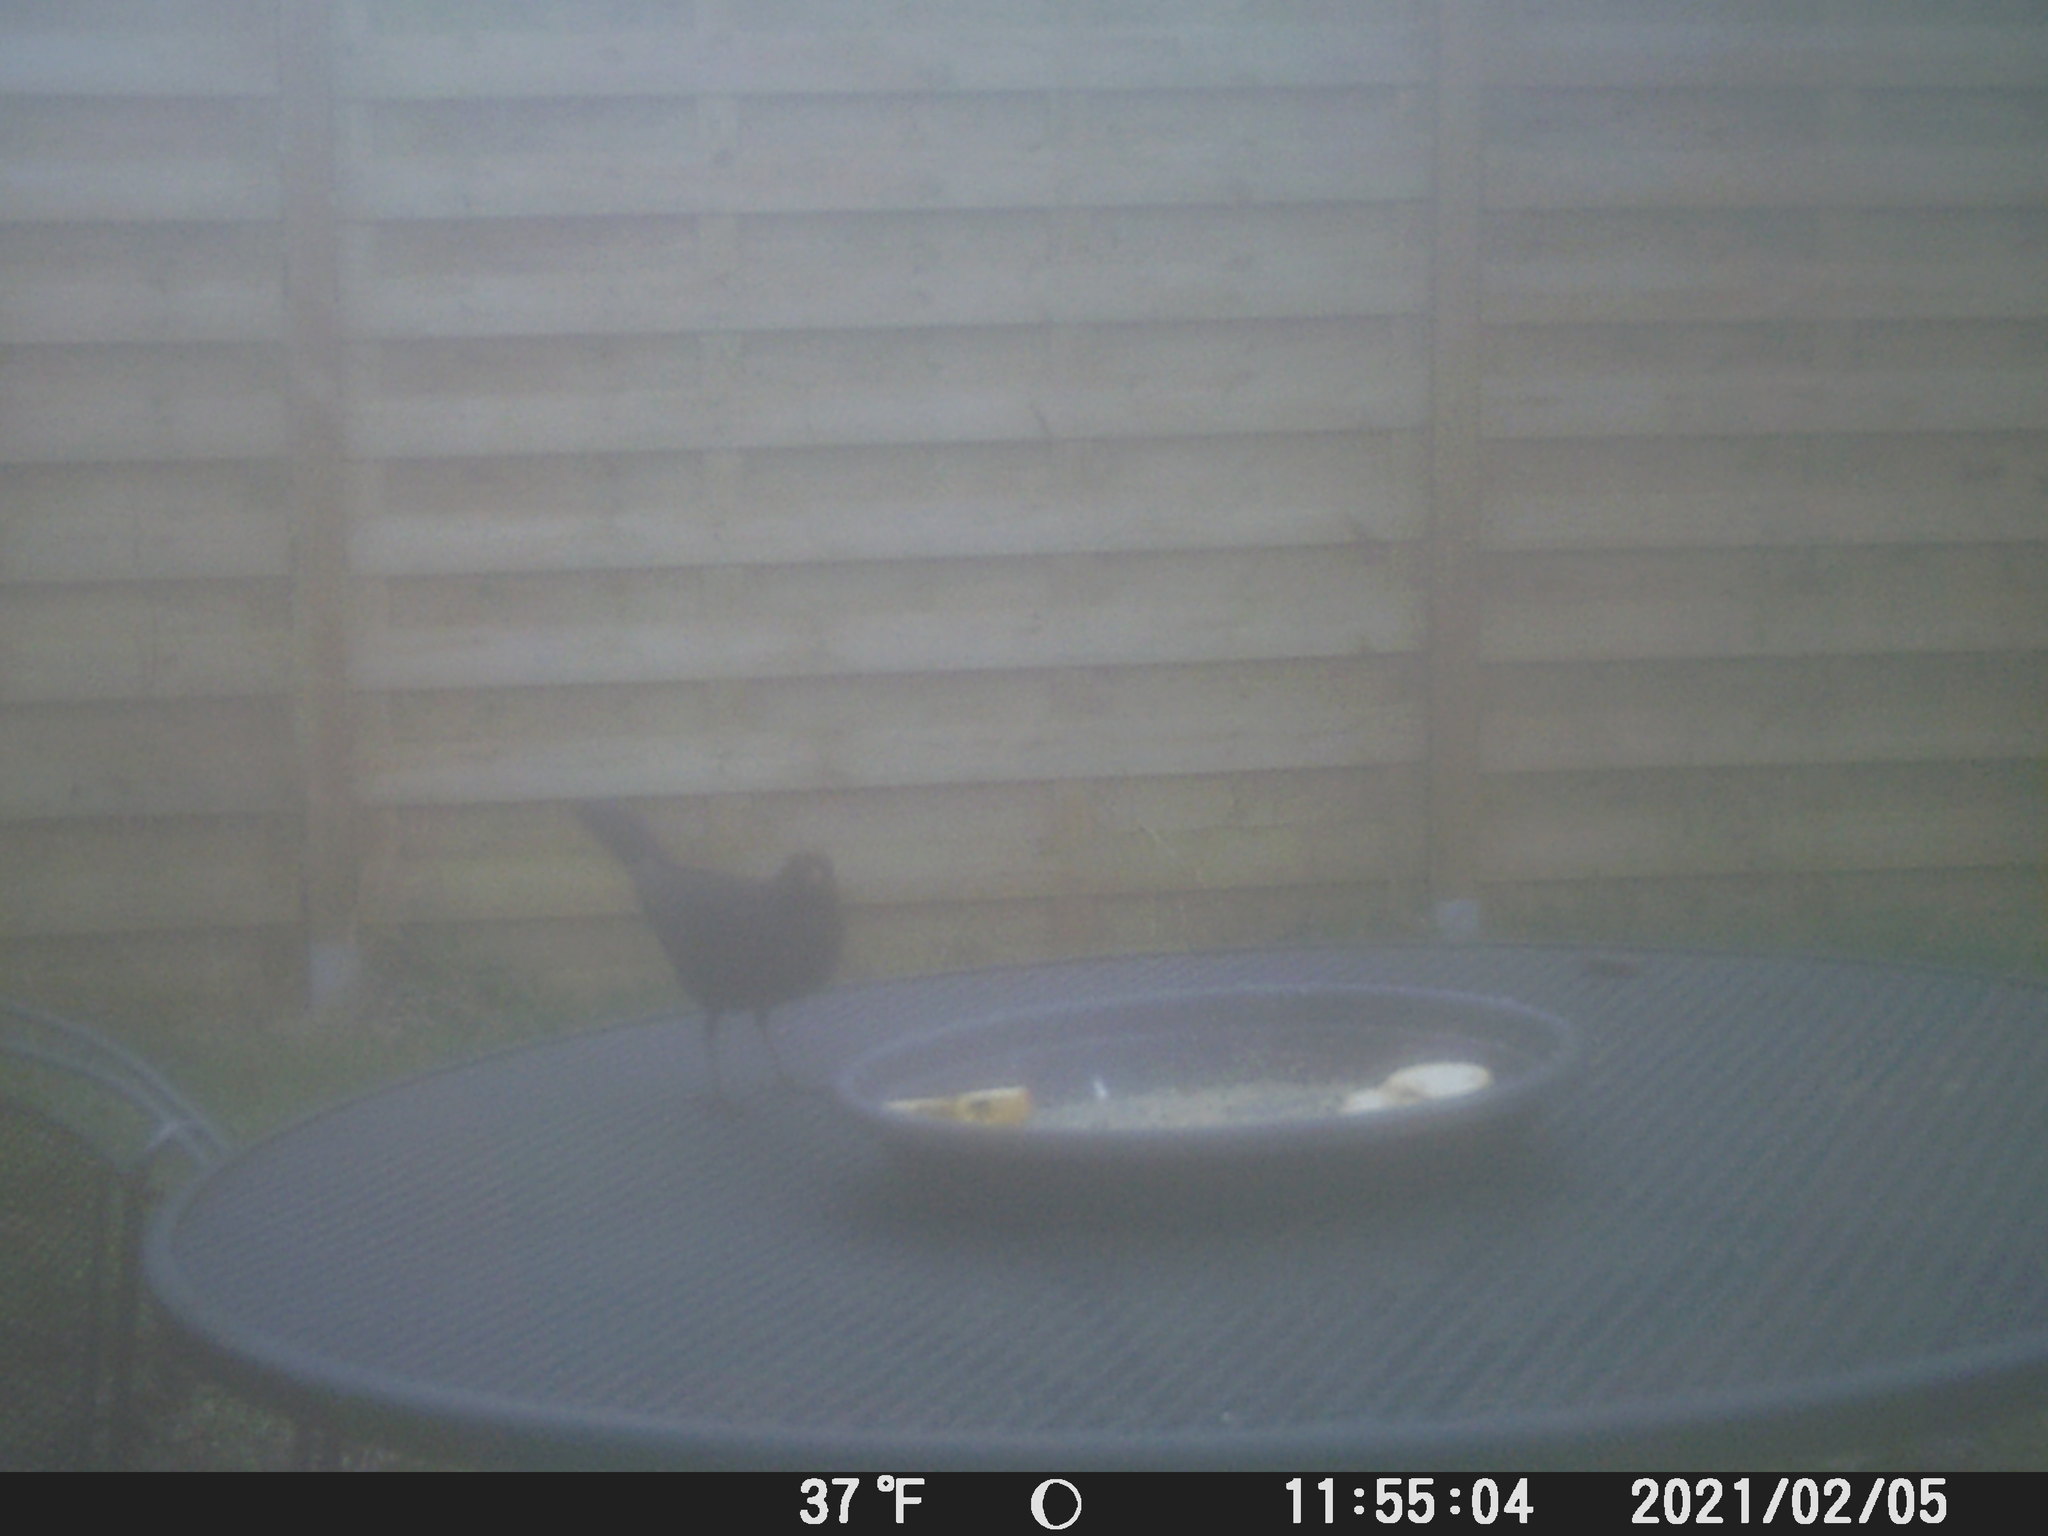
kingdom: Animalia
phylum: Chordata
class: Aves
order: Passeriformes
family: Turdidae
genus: Turdus
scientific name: Turdus merula
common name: Common blackbird
